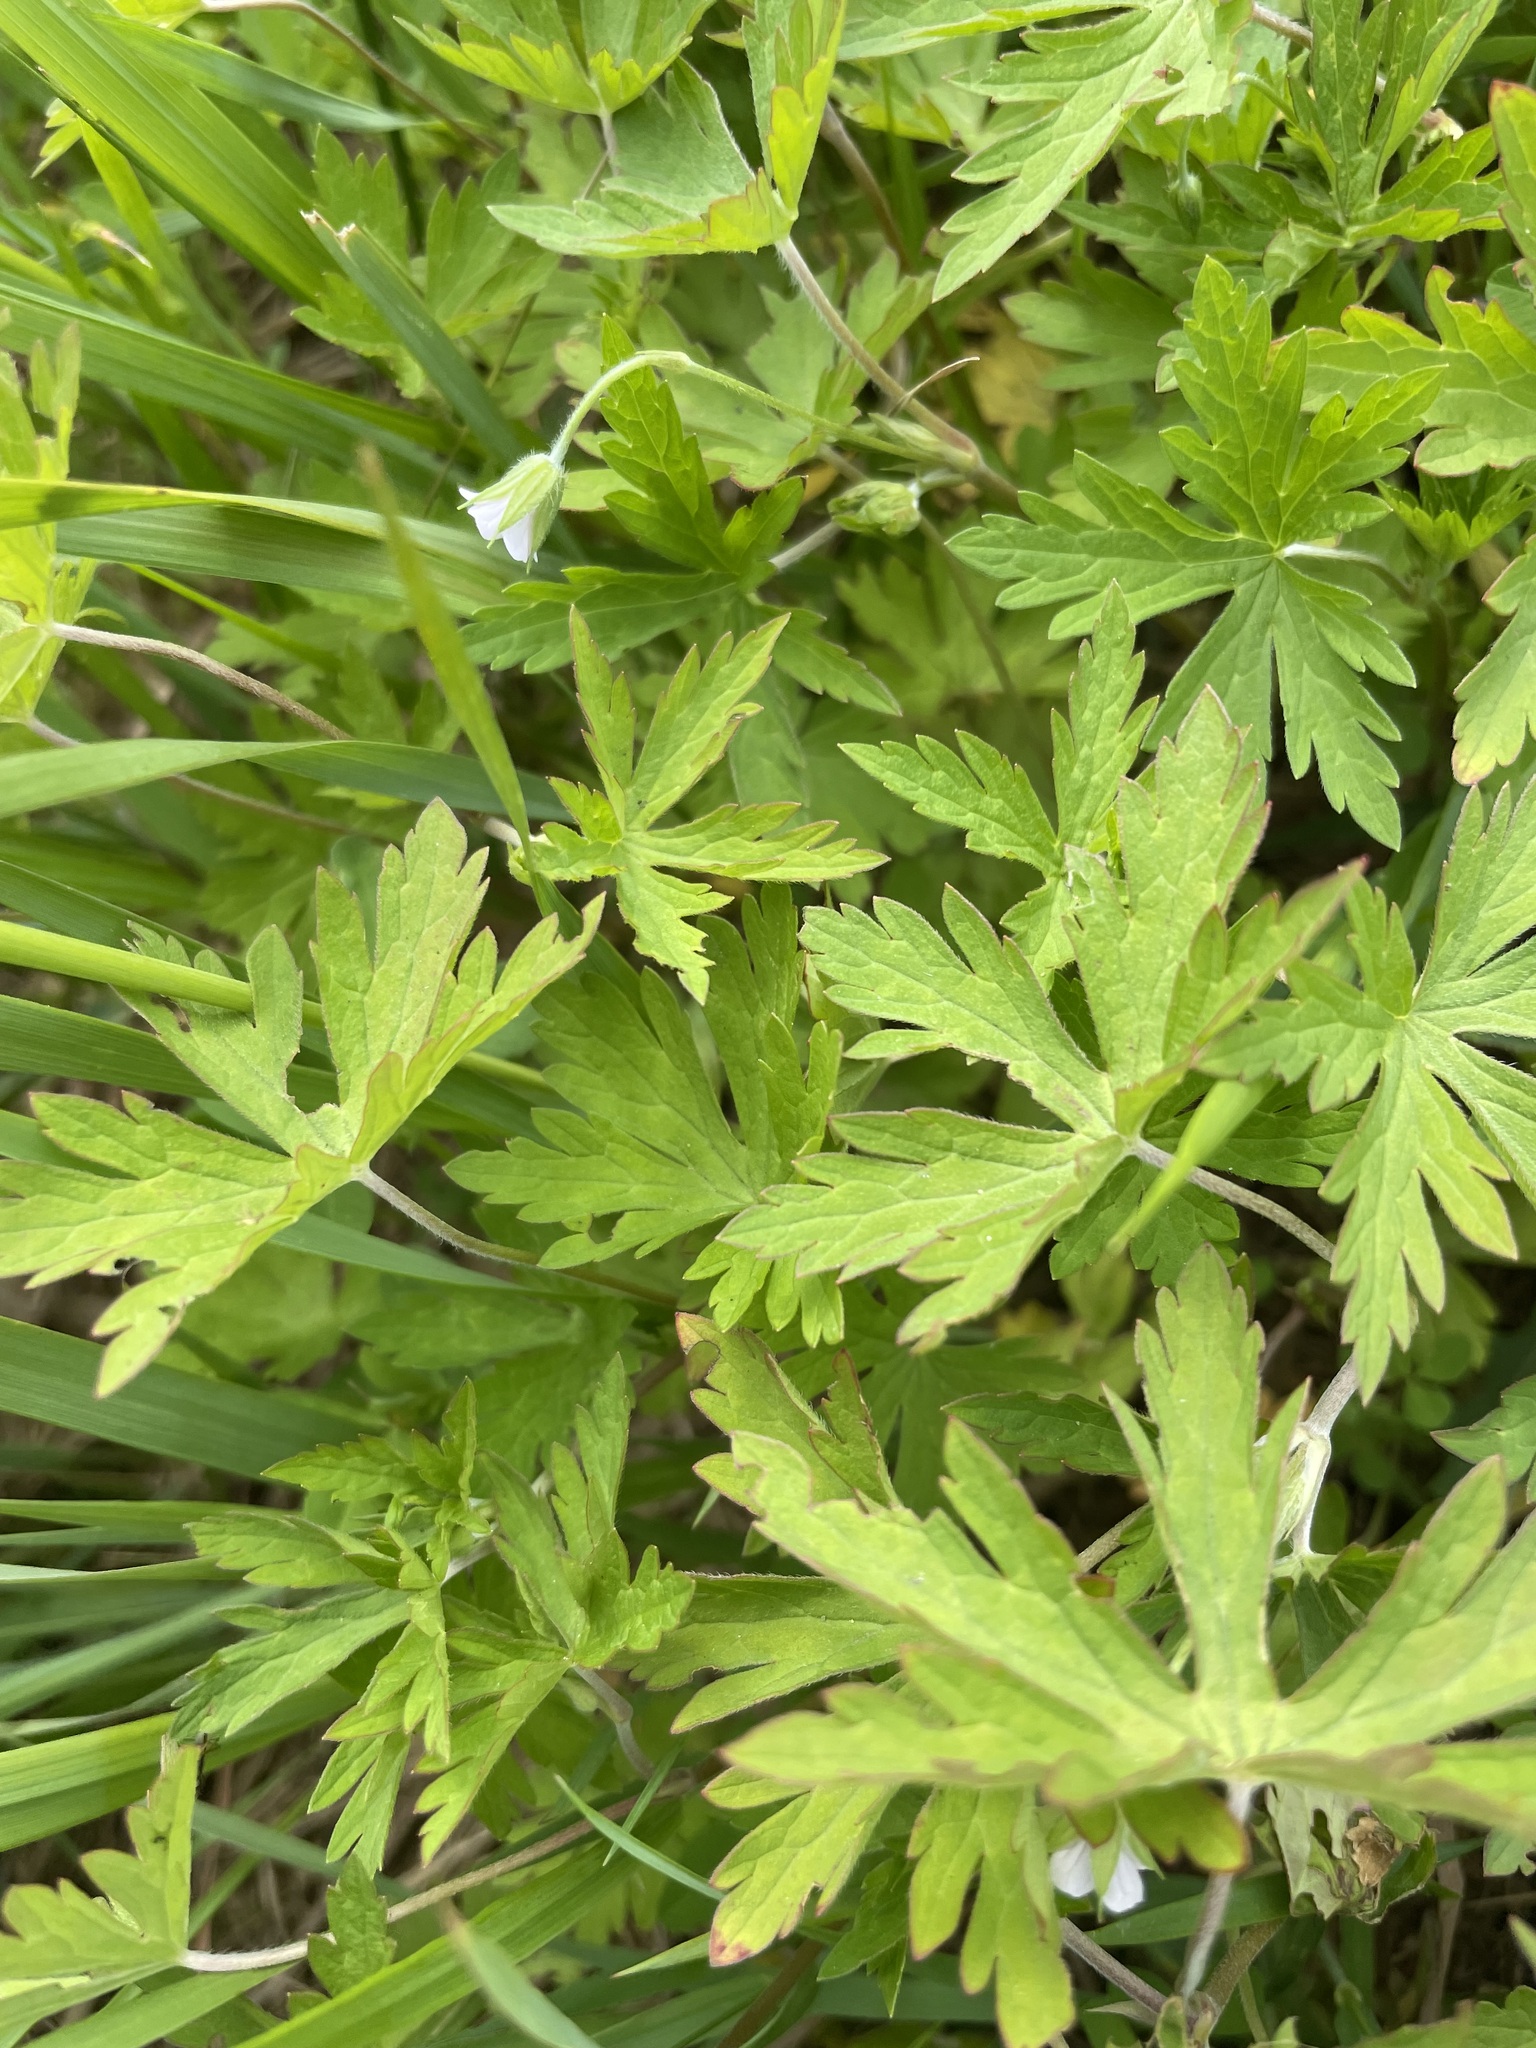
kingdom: Plantae
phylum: Tracheophyta
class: Magnoliopsida
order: Geraniales
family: Geraniaceae
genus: Geranium
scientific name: Geranium sibiricum
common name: Siberian crane's-bill
